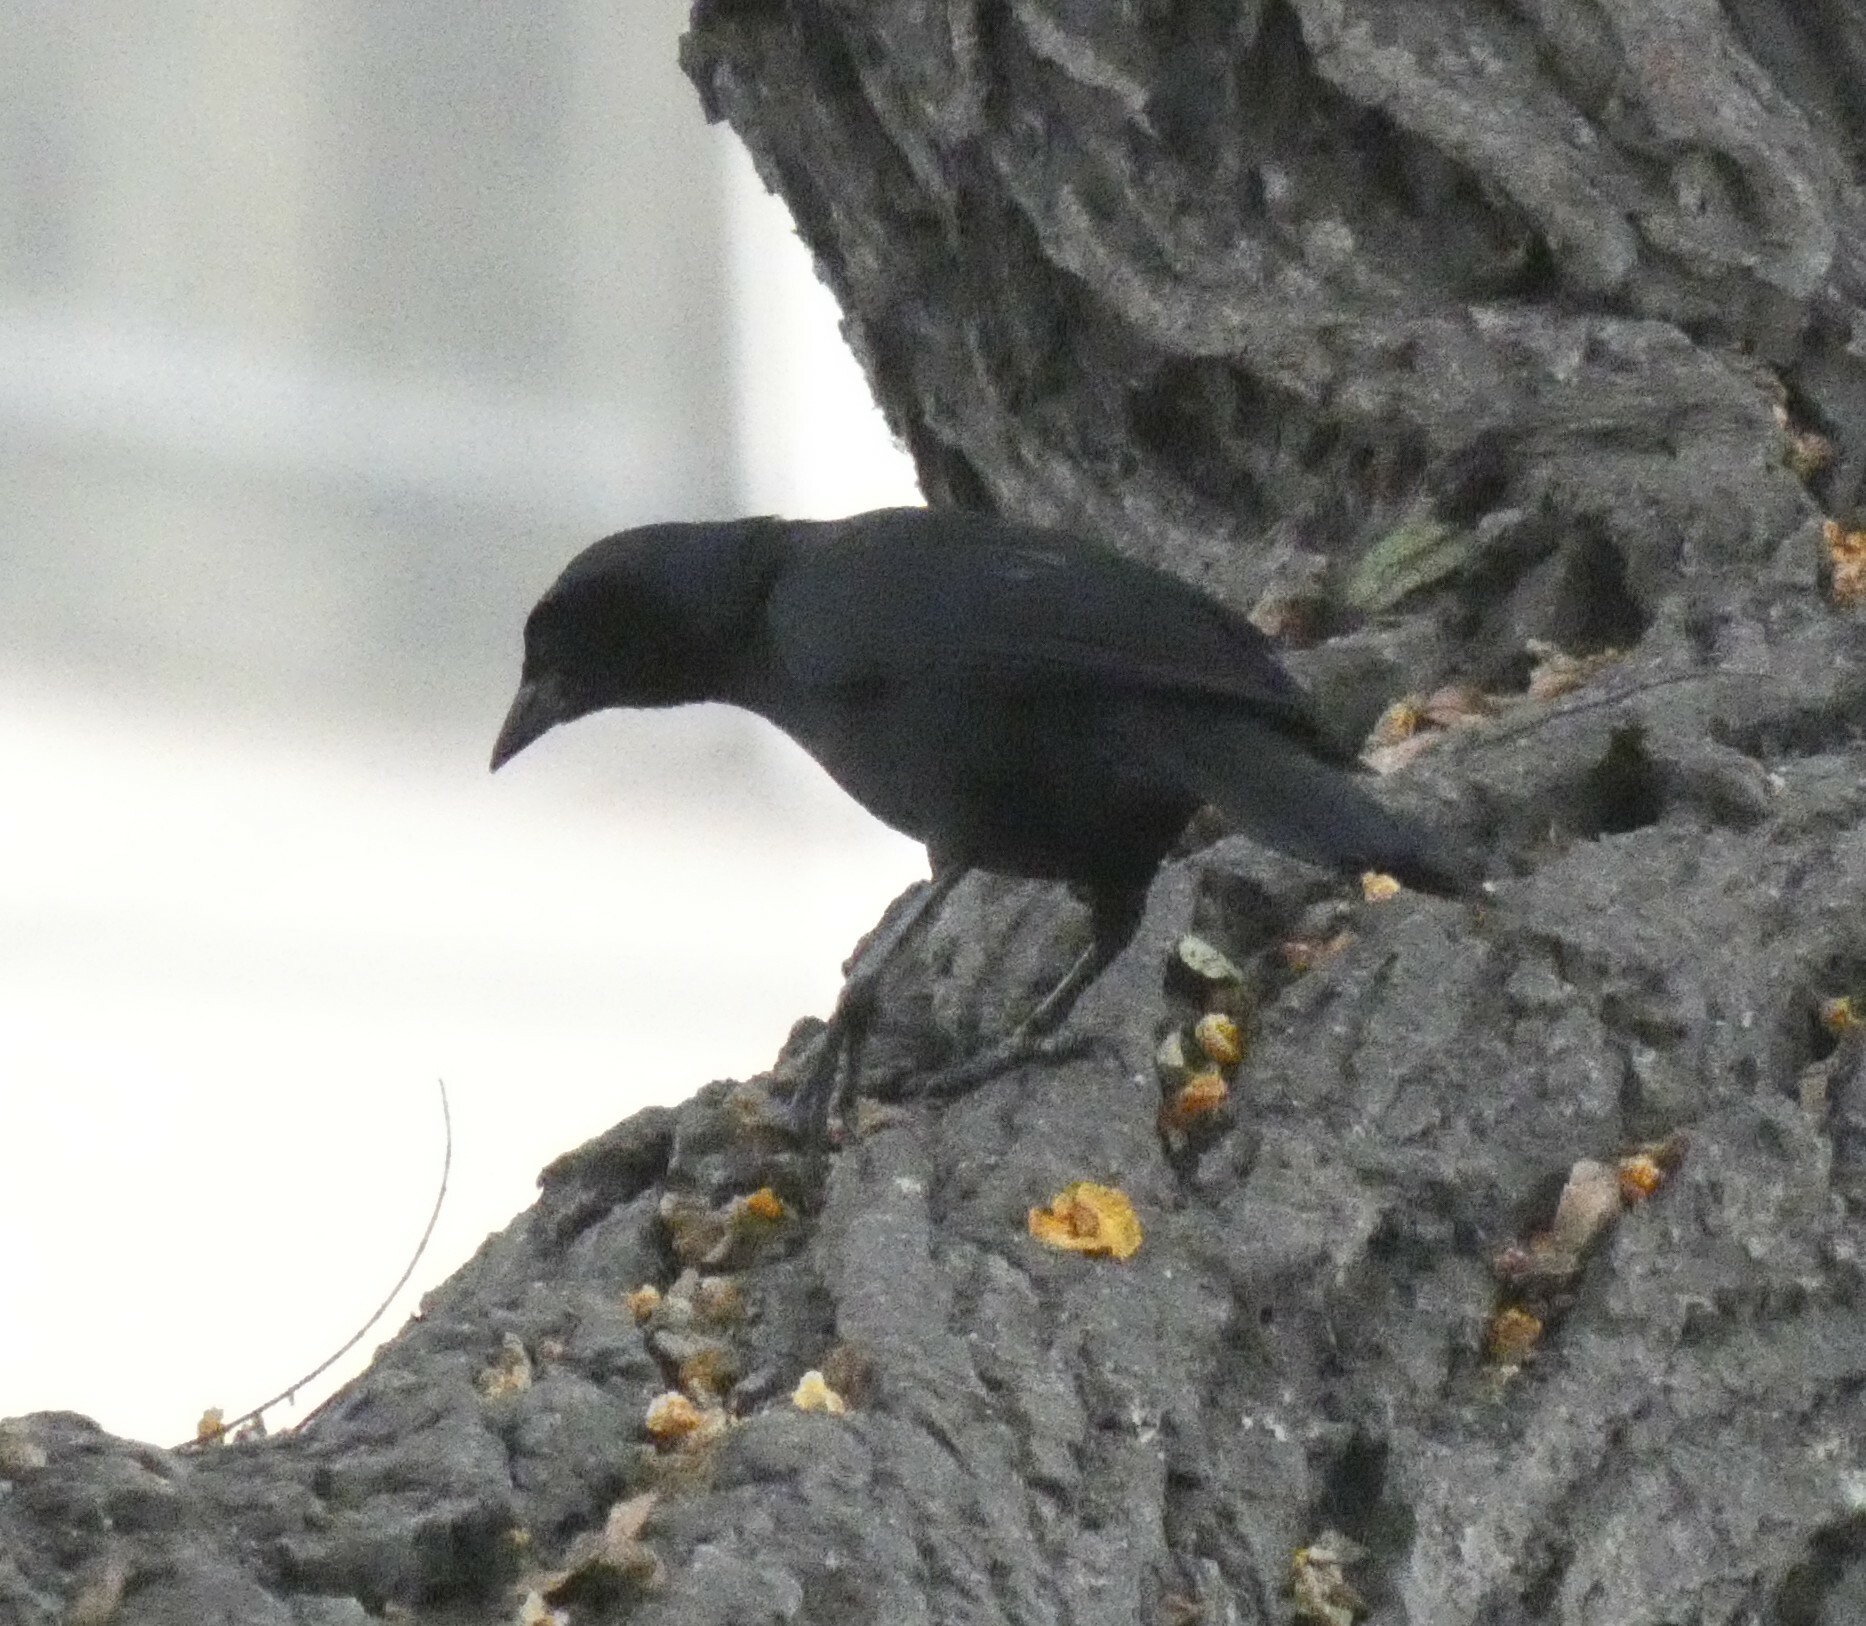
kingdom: Animalia
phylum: Chordata
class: Aves
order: Passeriformes
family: Icteridae
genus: Dives
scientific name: Dives warczewiczi
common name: Scrub blackbird
